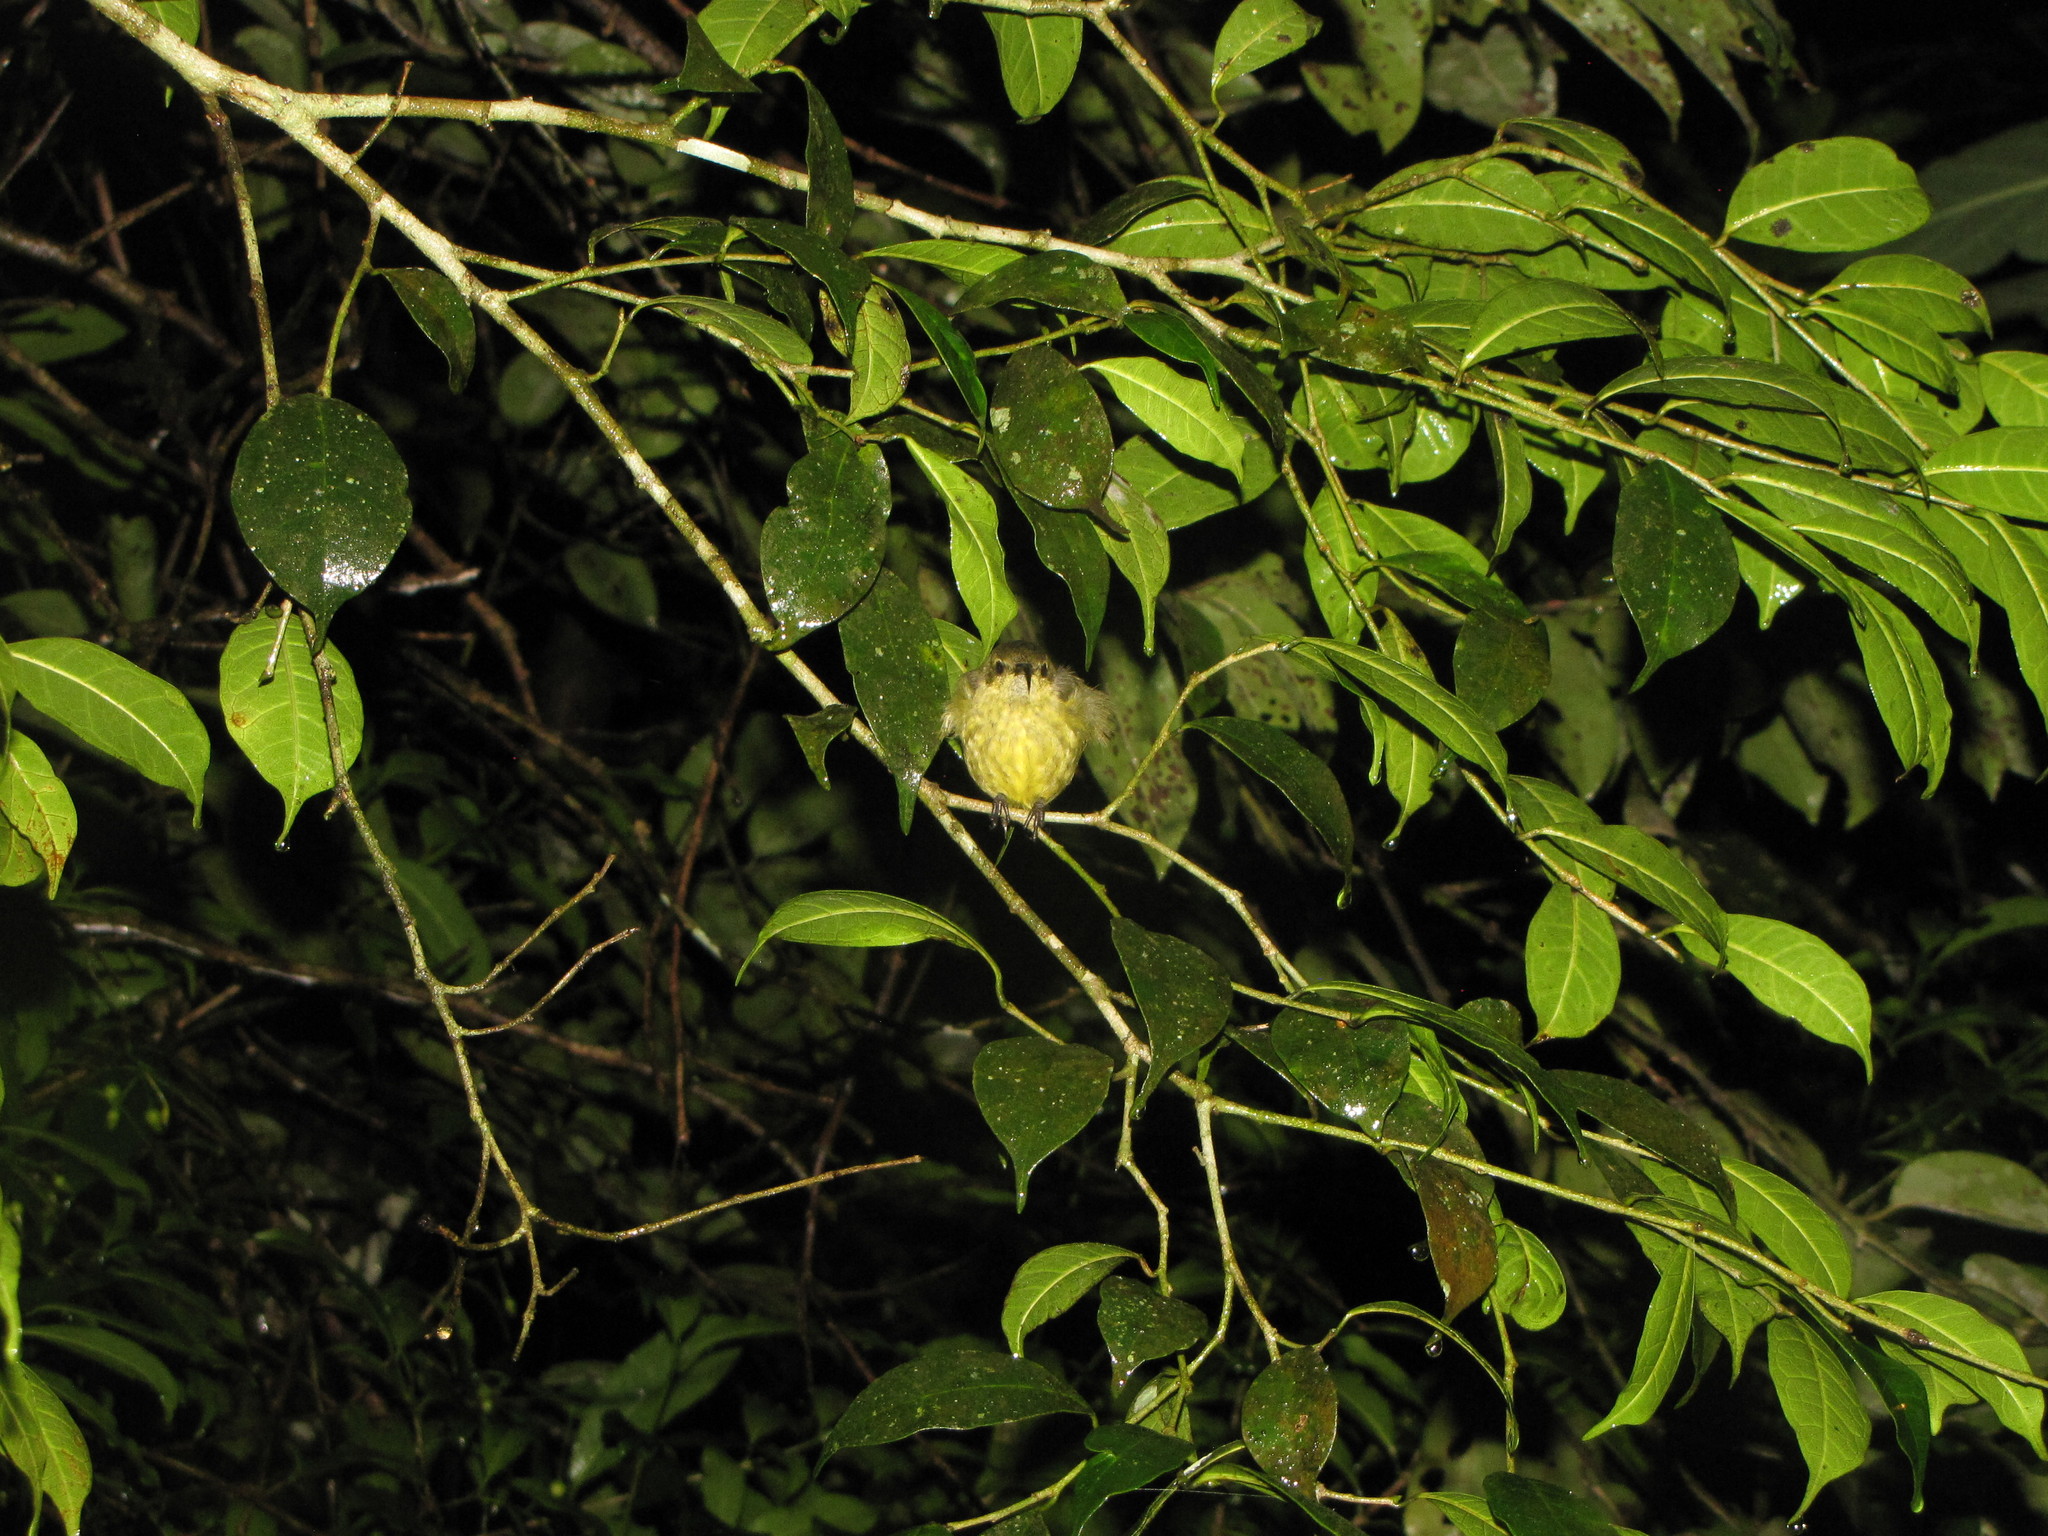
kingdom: Animalia
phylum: Chordata
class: Aves
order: Passeriformes
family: Nectariniidae
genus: Cinnyris
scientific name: Cinnyris sovimanga
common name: Souimanga sunbird
